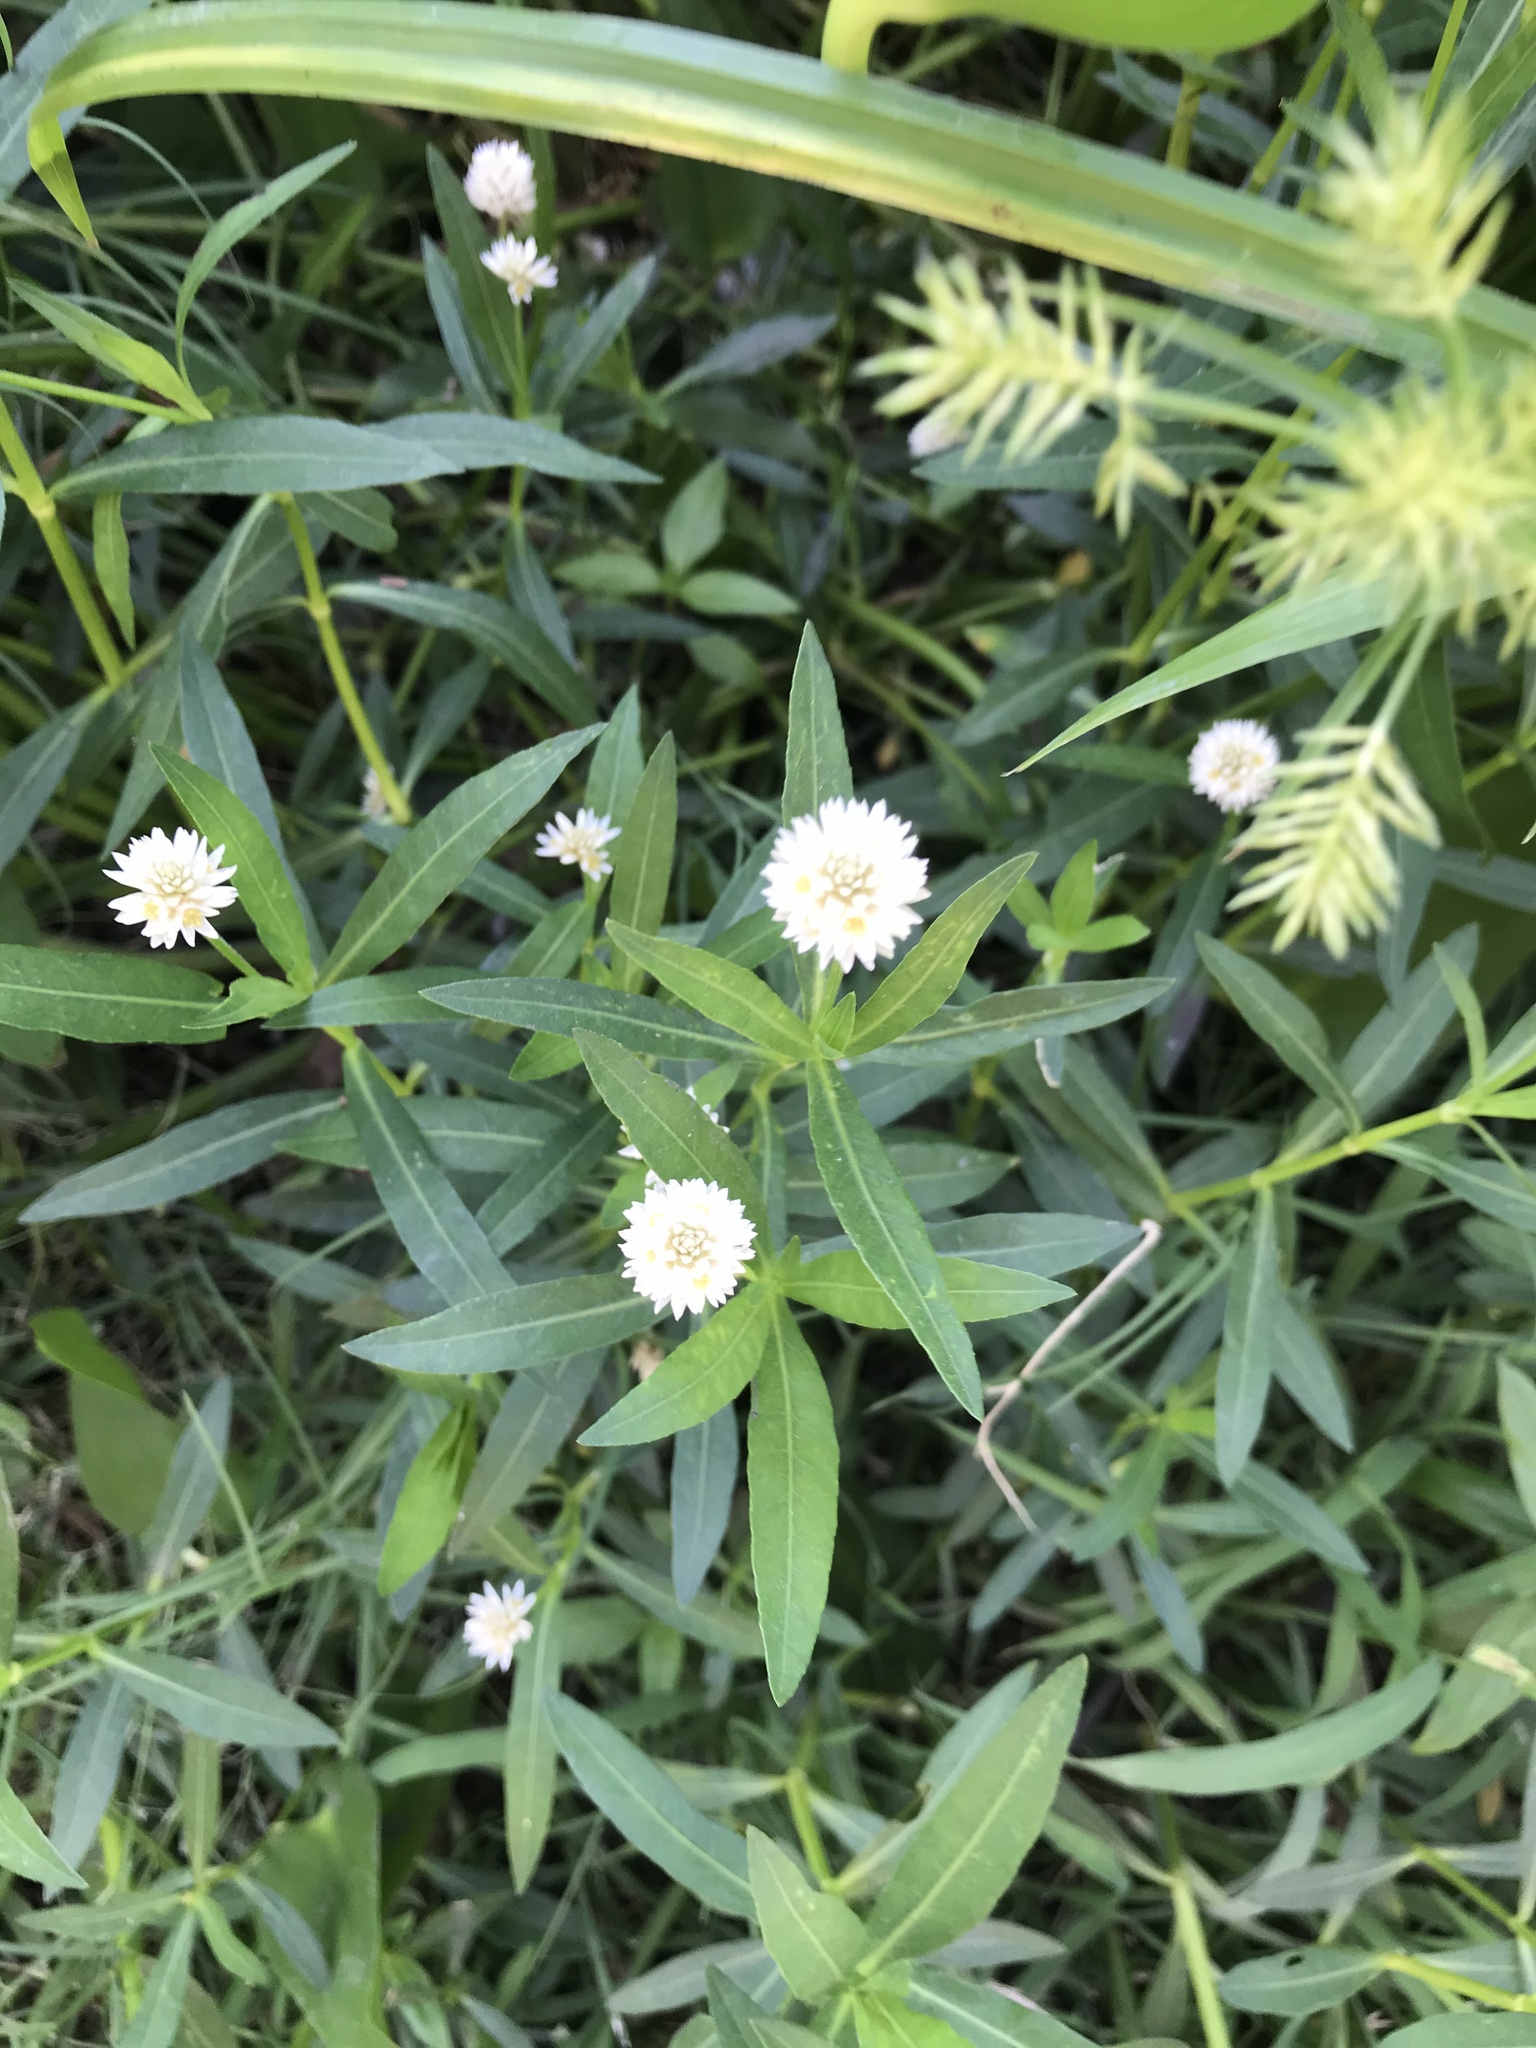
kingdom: Plantae
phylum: Tracheophyta
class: Magnoliopsida
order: Caryophyllales
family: Amaranthaceae
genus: Alternanthera
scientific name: Alternanthera philoxeroides
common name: Alligatorweed
